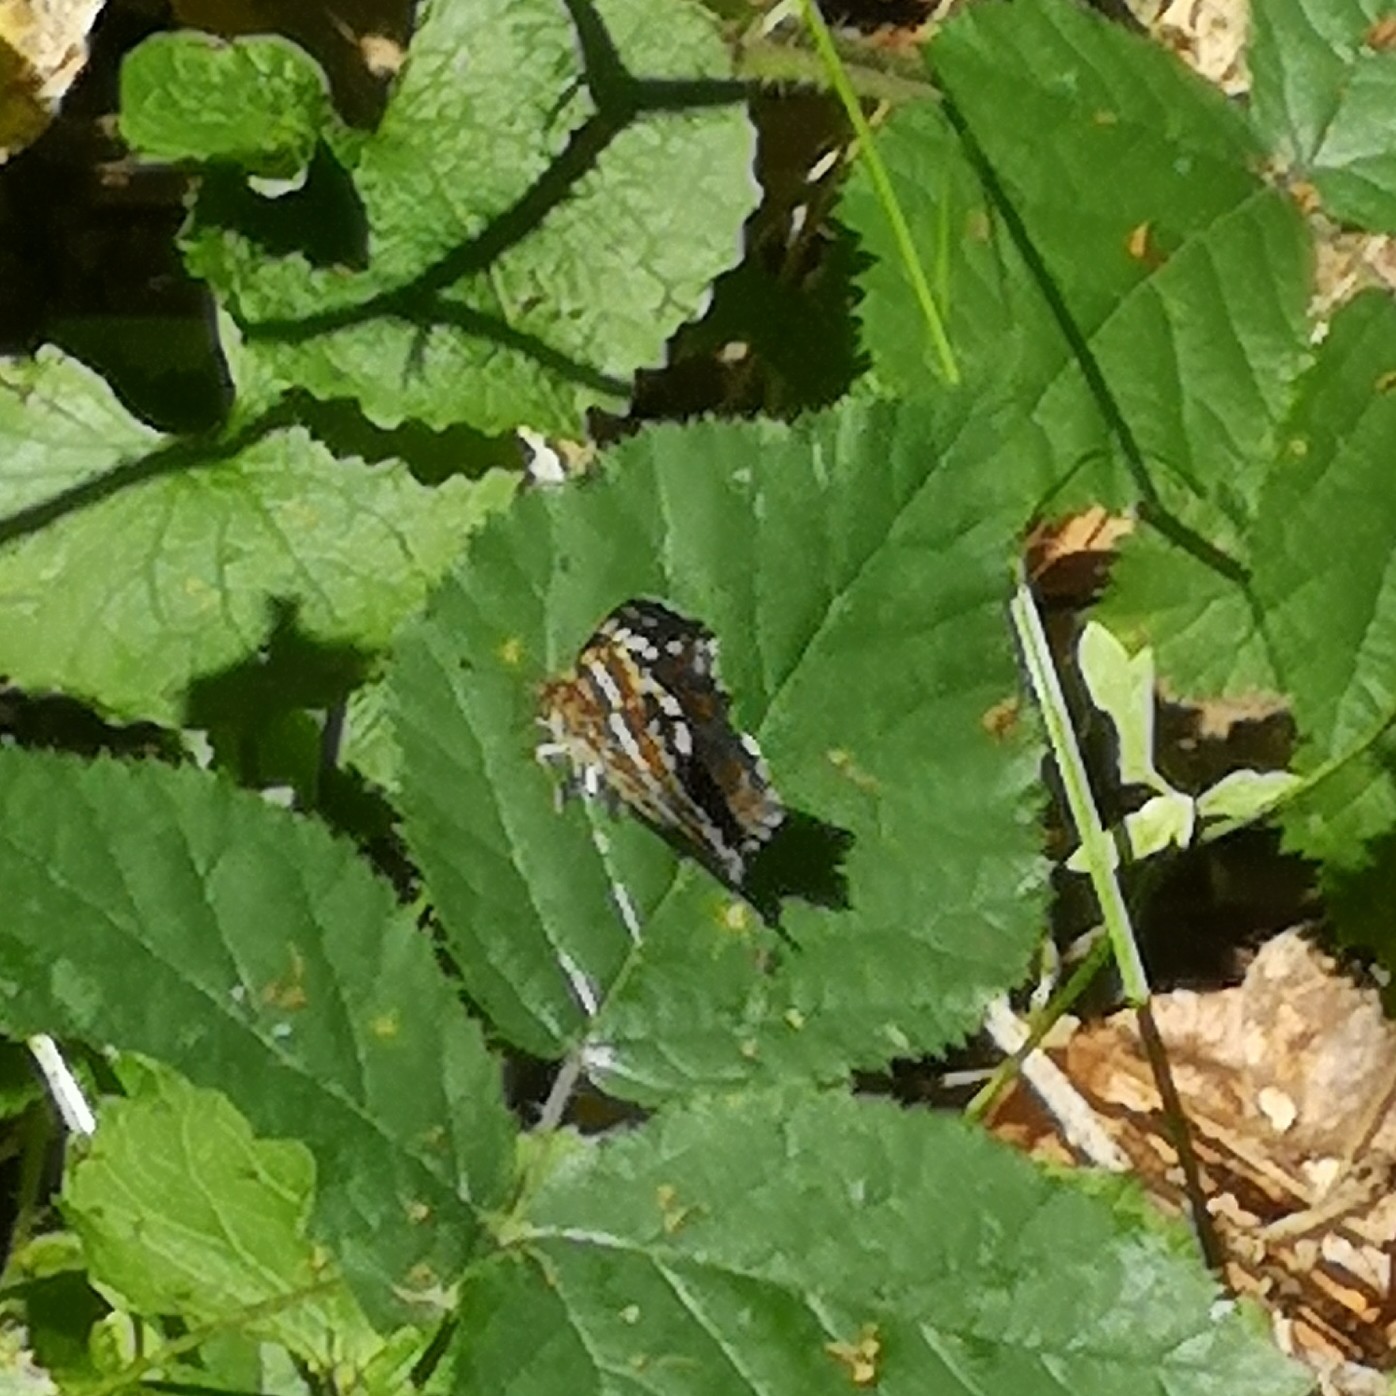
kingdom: Animalia
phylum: Arthropoda
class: Insecta
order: Lepidoptera
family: Nymphalidae
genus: Araschnia
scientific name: Araschnia levana
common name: Map butterfly
